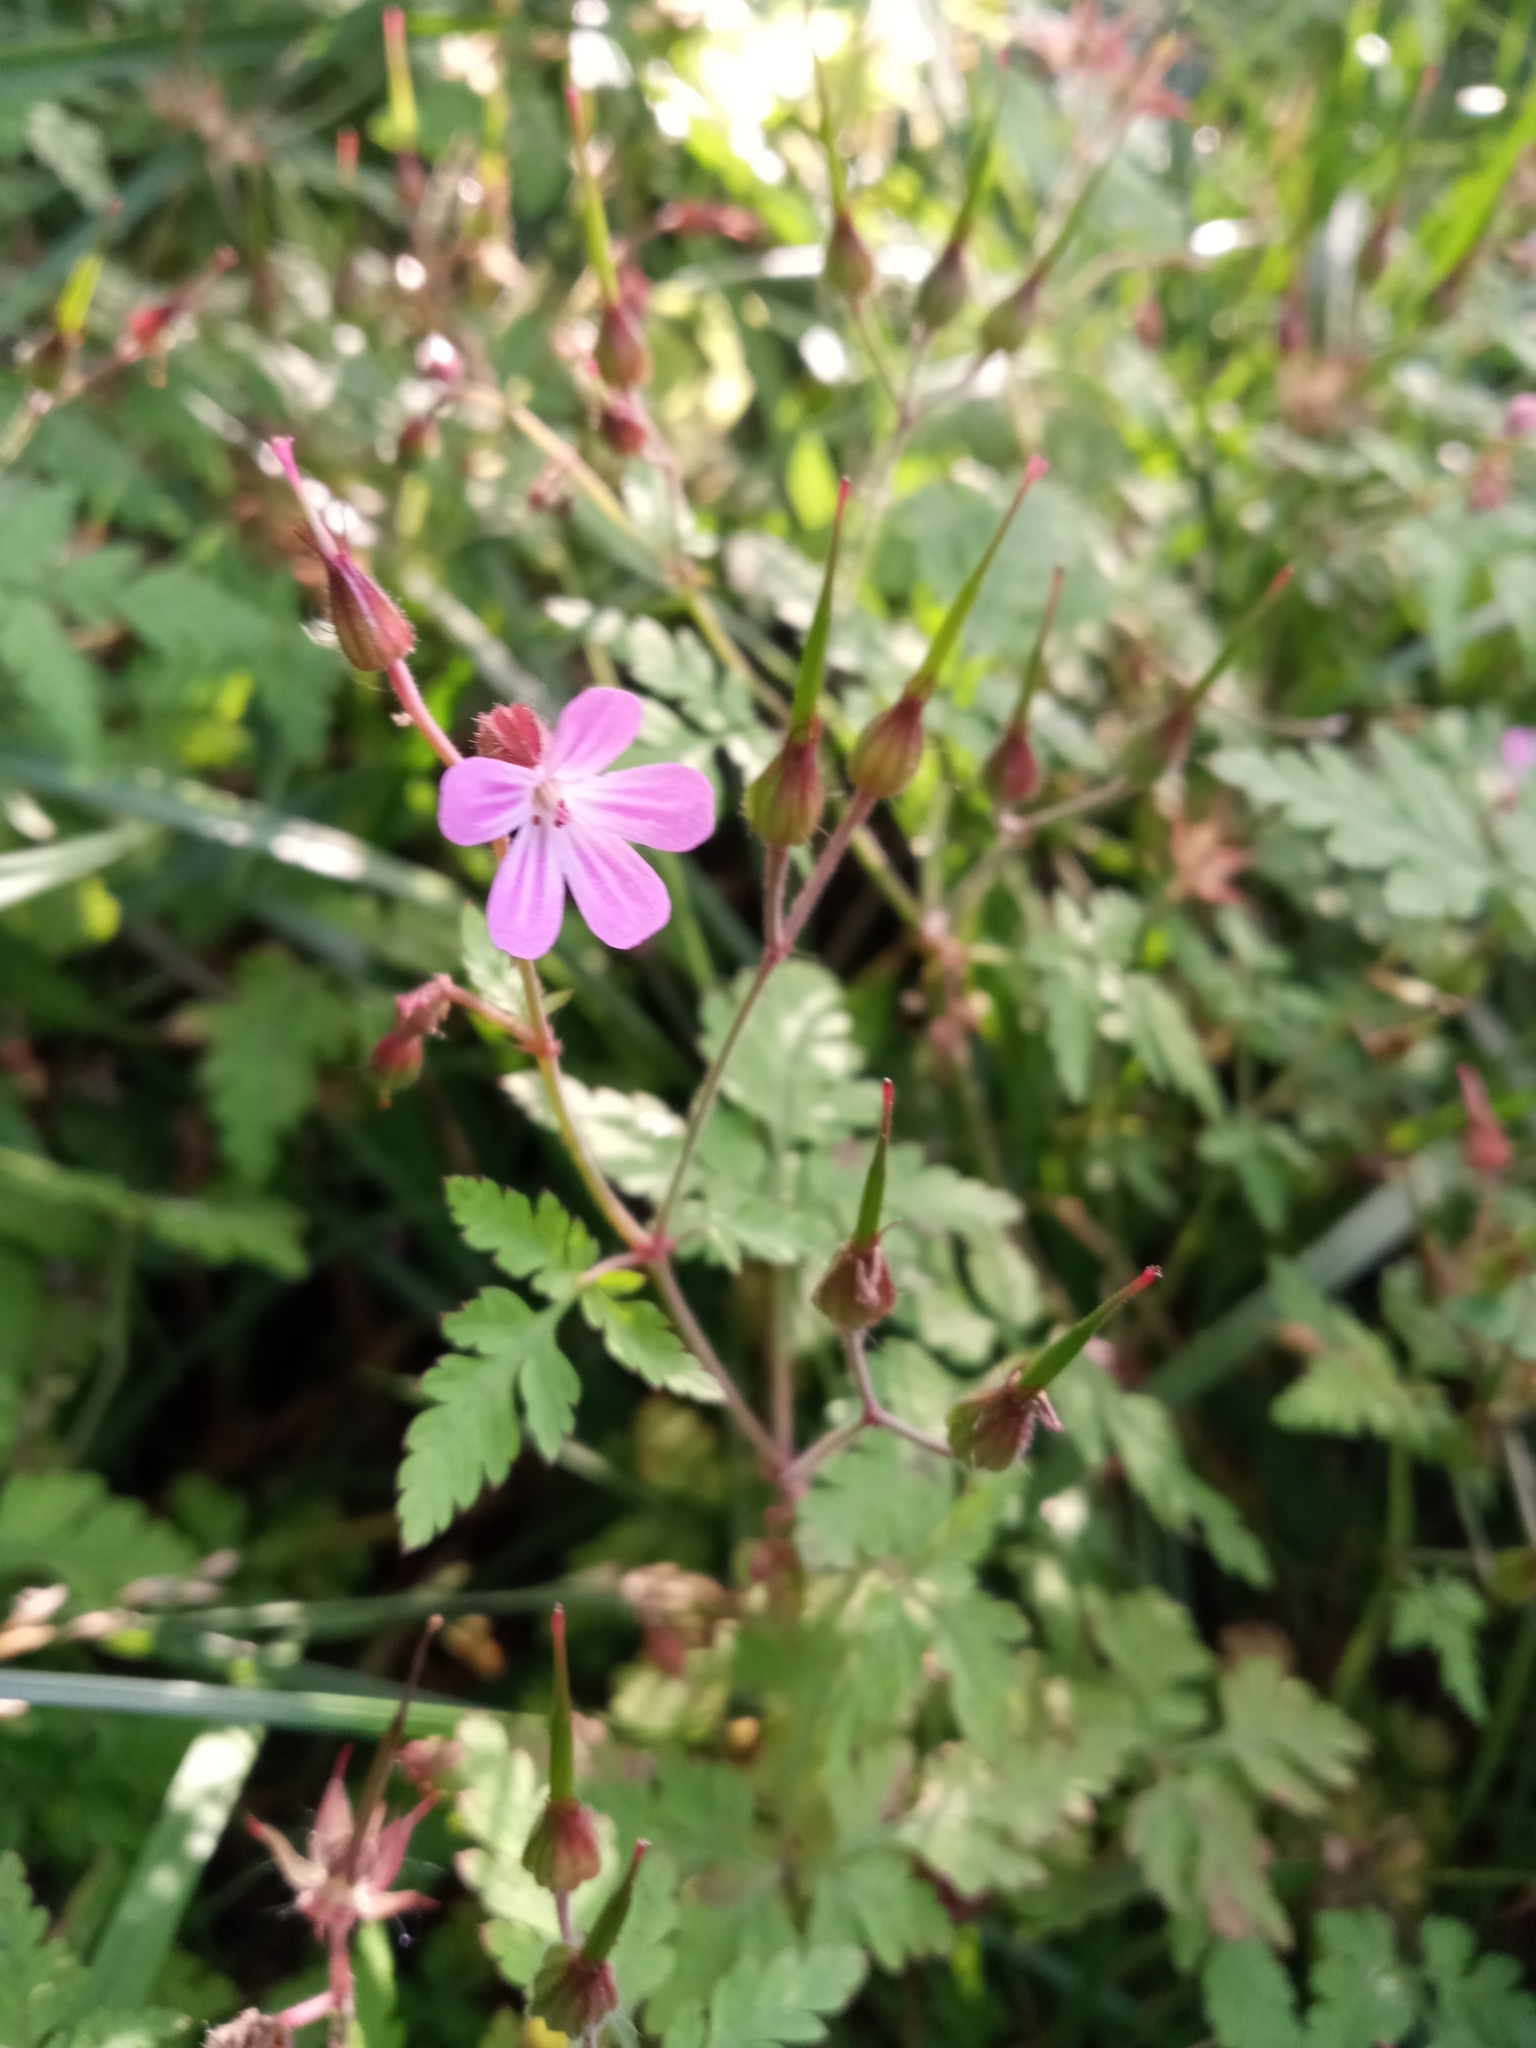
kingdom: Plantae
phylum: Tracheophyta
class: Magnoliopsida
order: Geraniales
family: Geraniaceae
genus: Geranium
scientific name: Geranium robertianum
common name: Herb-robert
